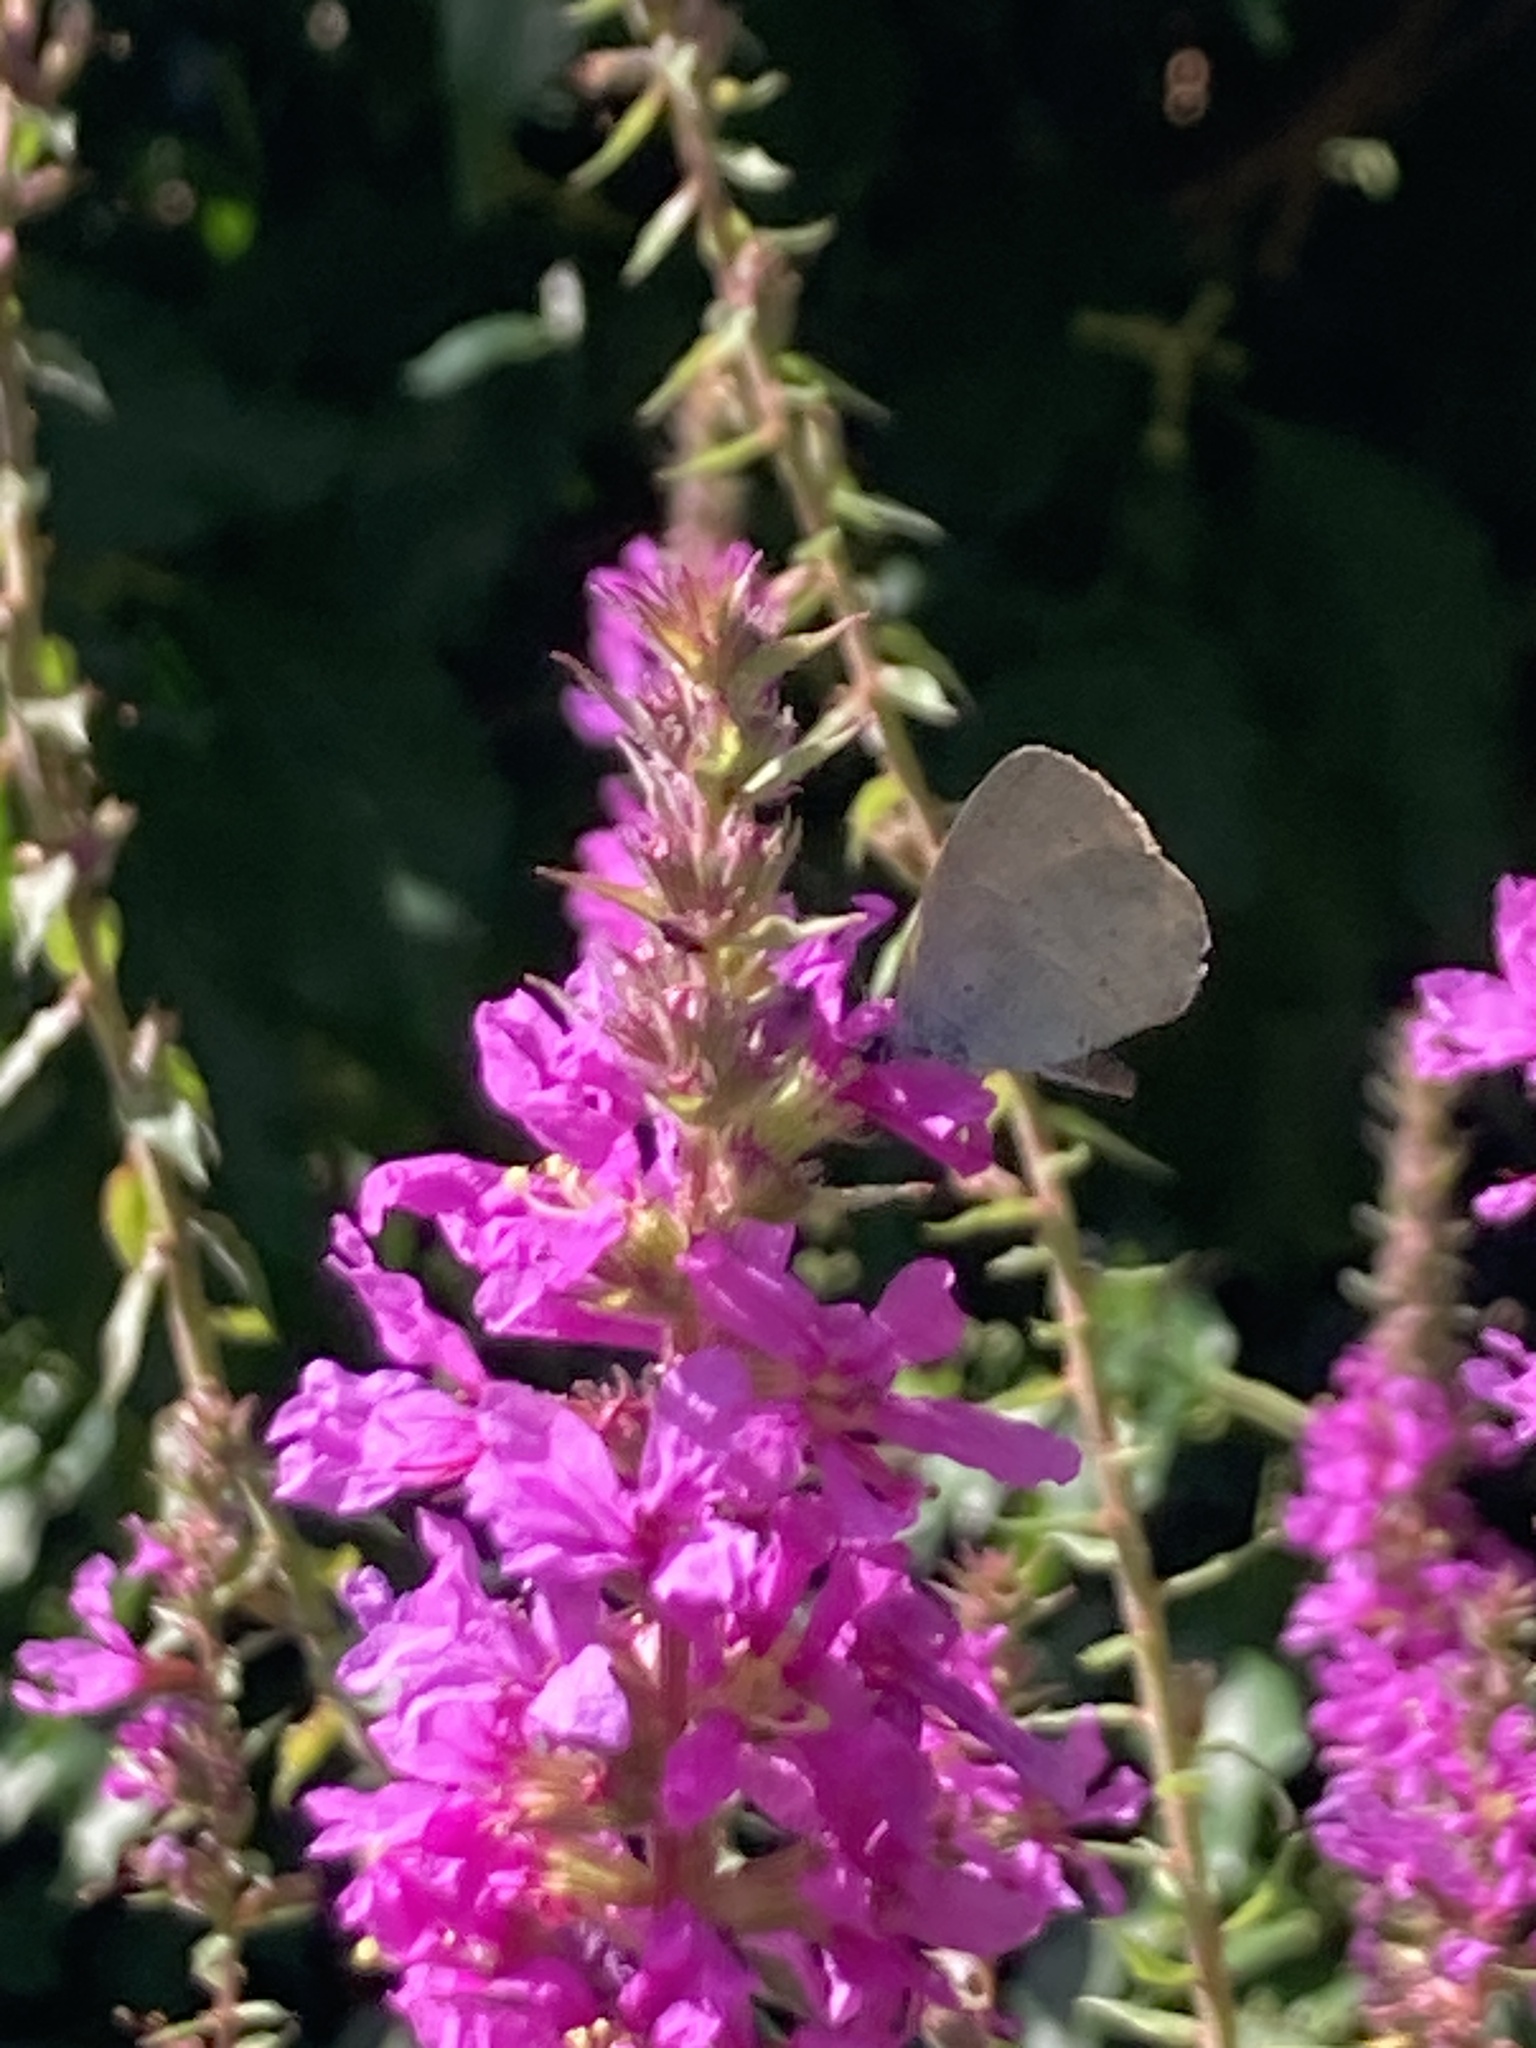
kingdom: Animalia
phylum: Arthropoda
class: Insecta
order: Lepidoptera
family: Lycaenidae
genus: Celastrina
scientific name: Celastrina argiolus
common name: Holly blue
